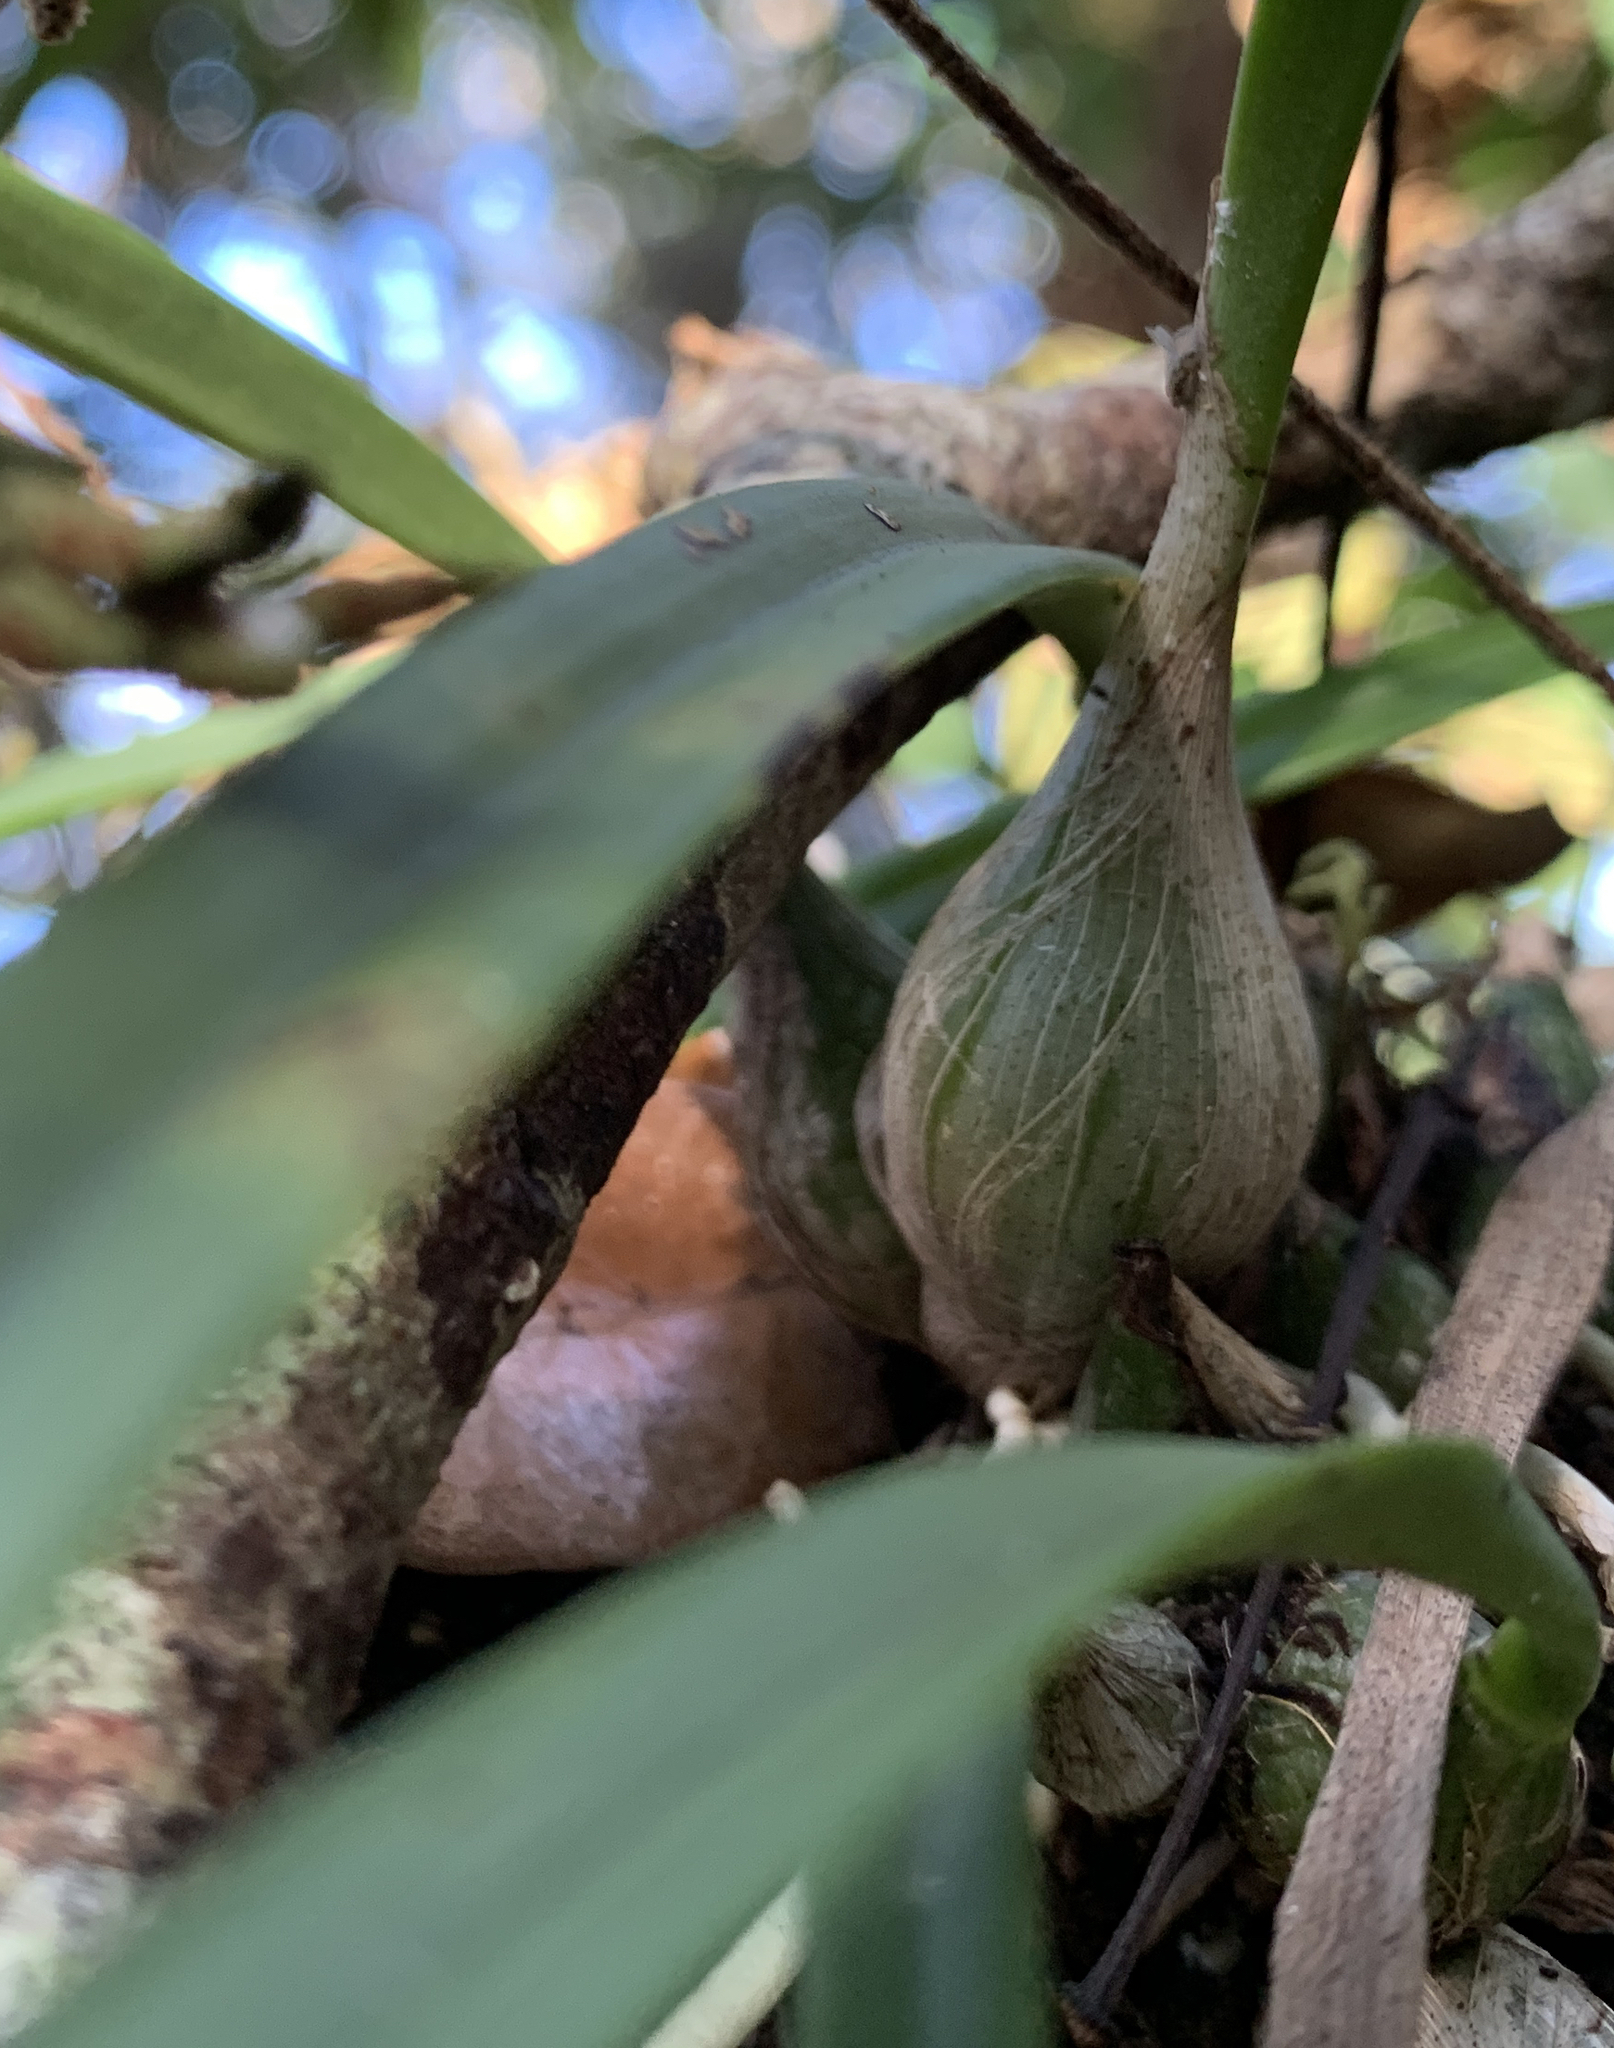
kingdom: Plantae
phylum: Tracheophyta
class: Liliopsida
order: Asparagales
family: Orchidaceae
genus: Encyclia
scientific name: Encyclia tampensis
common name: Florida butterfly orchid
